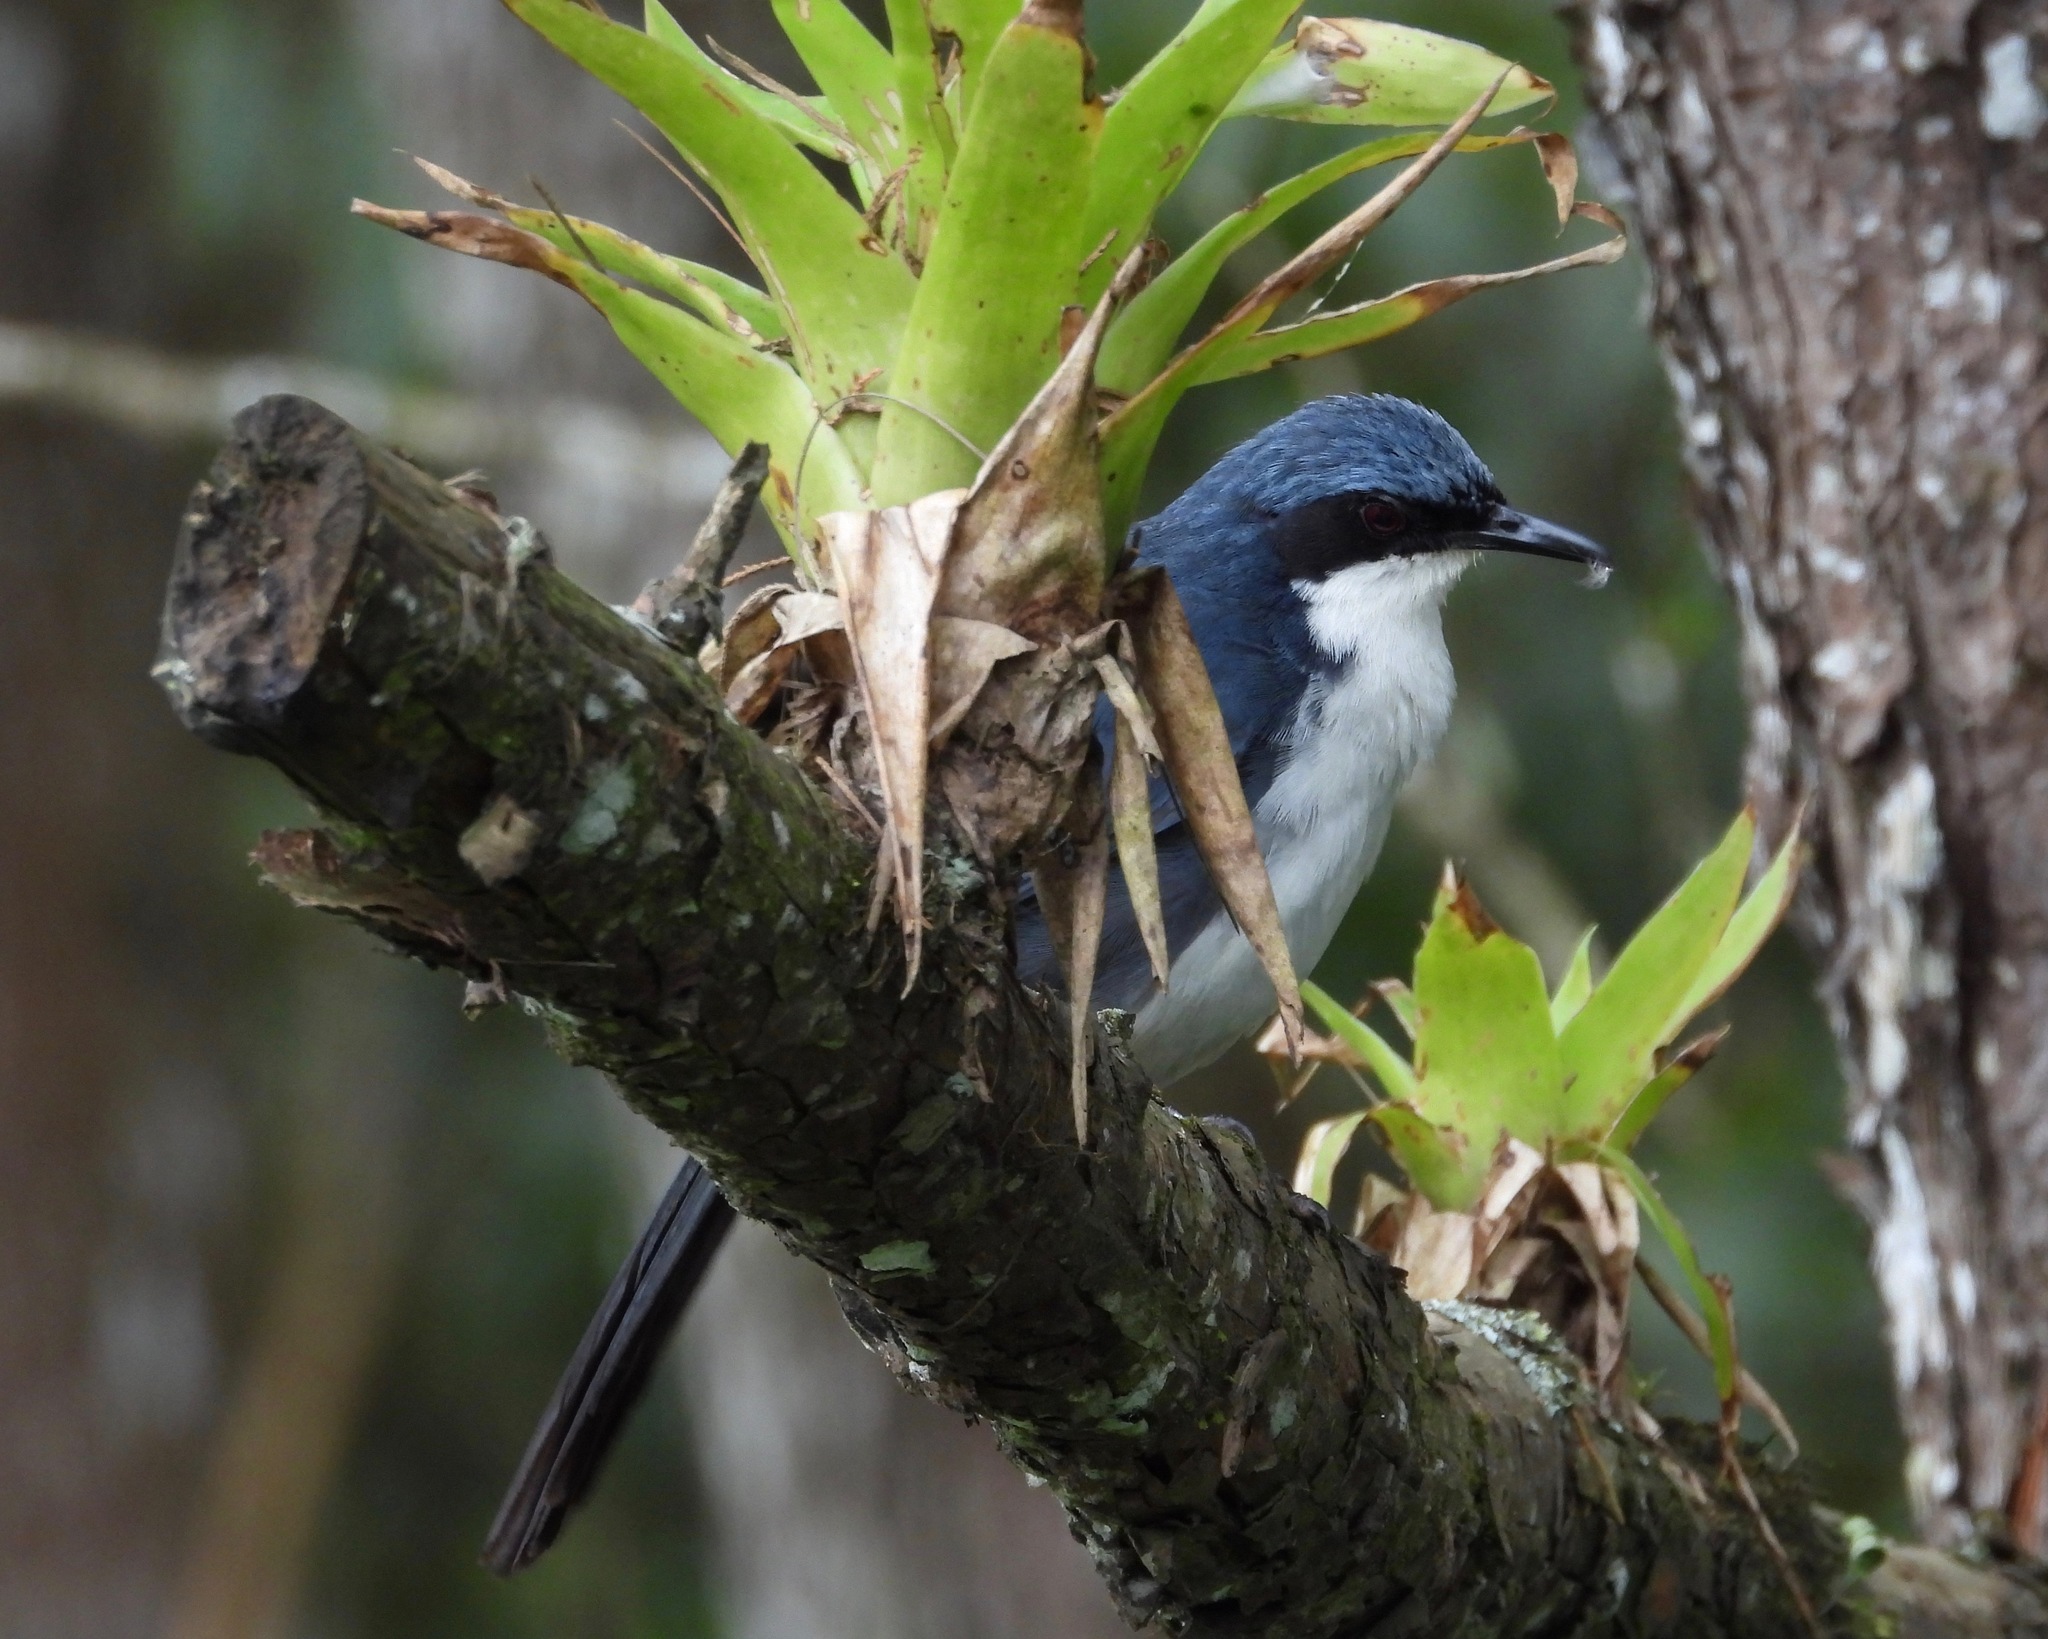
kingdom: Animalia
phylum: Chordata
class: Aves
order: Passeriformes
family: Mimidae
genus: Melanotis
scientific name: Melanotis hypoleucus
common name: Blue-and-white mockingbird
